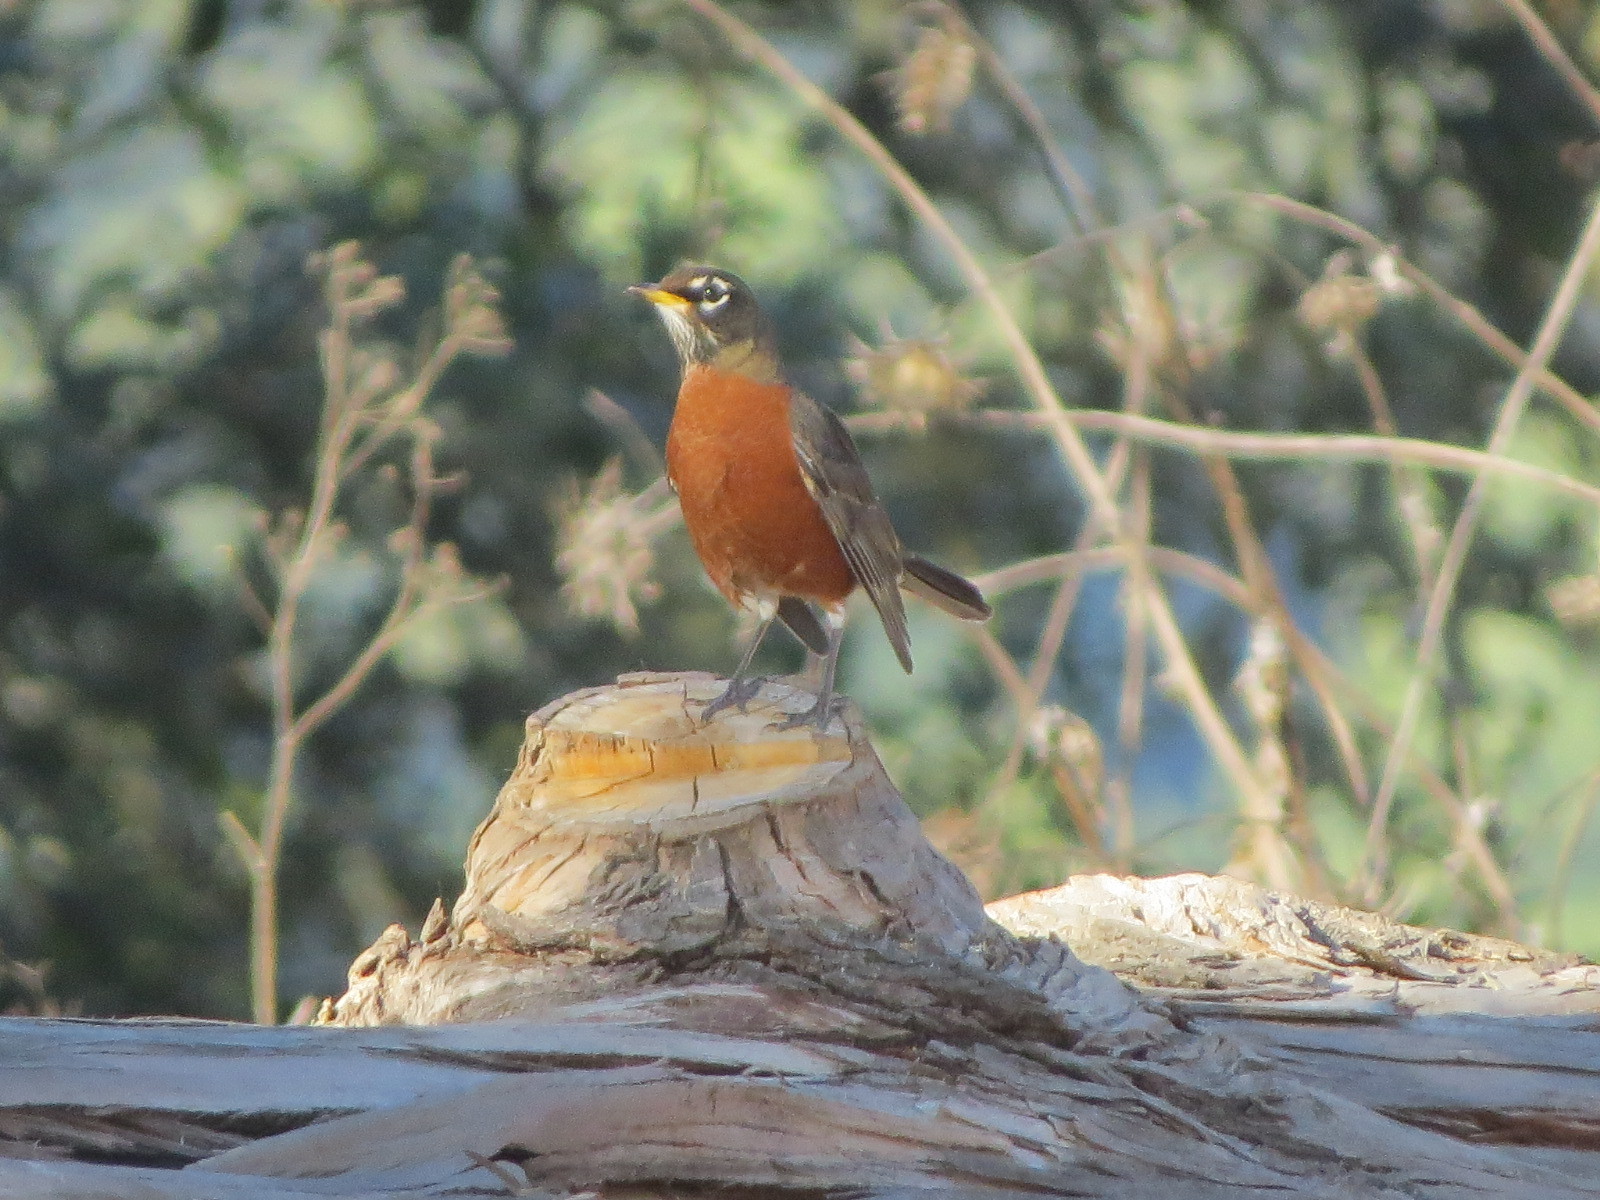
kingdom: Animalia
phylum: Chordata
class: Aves
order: Passeriformes
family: Turdidae
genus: Turdus
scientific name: Turdus migratorius
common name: American robin
